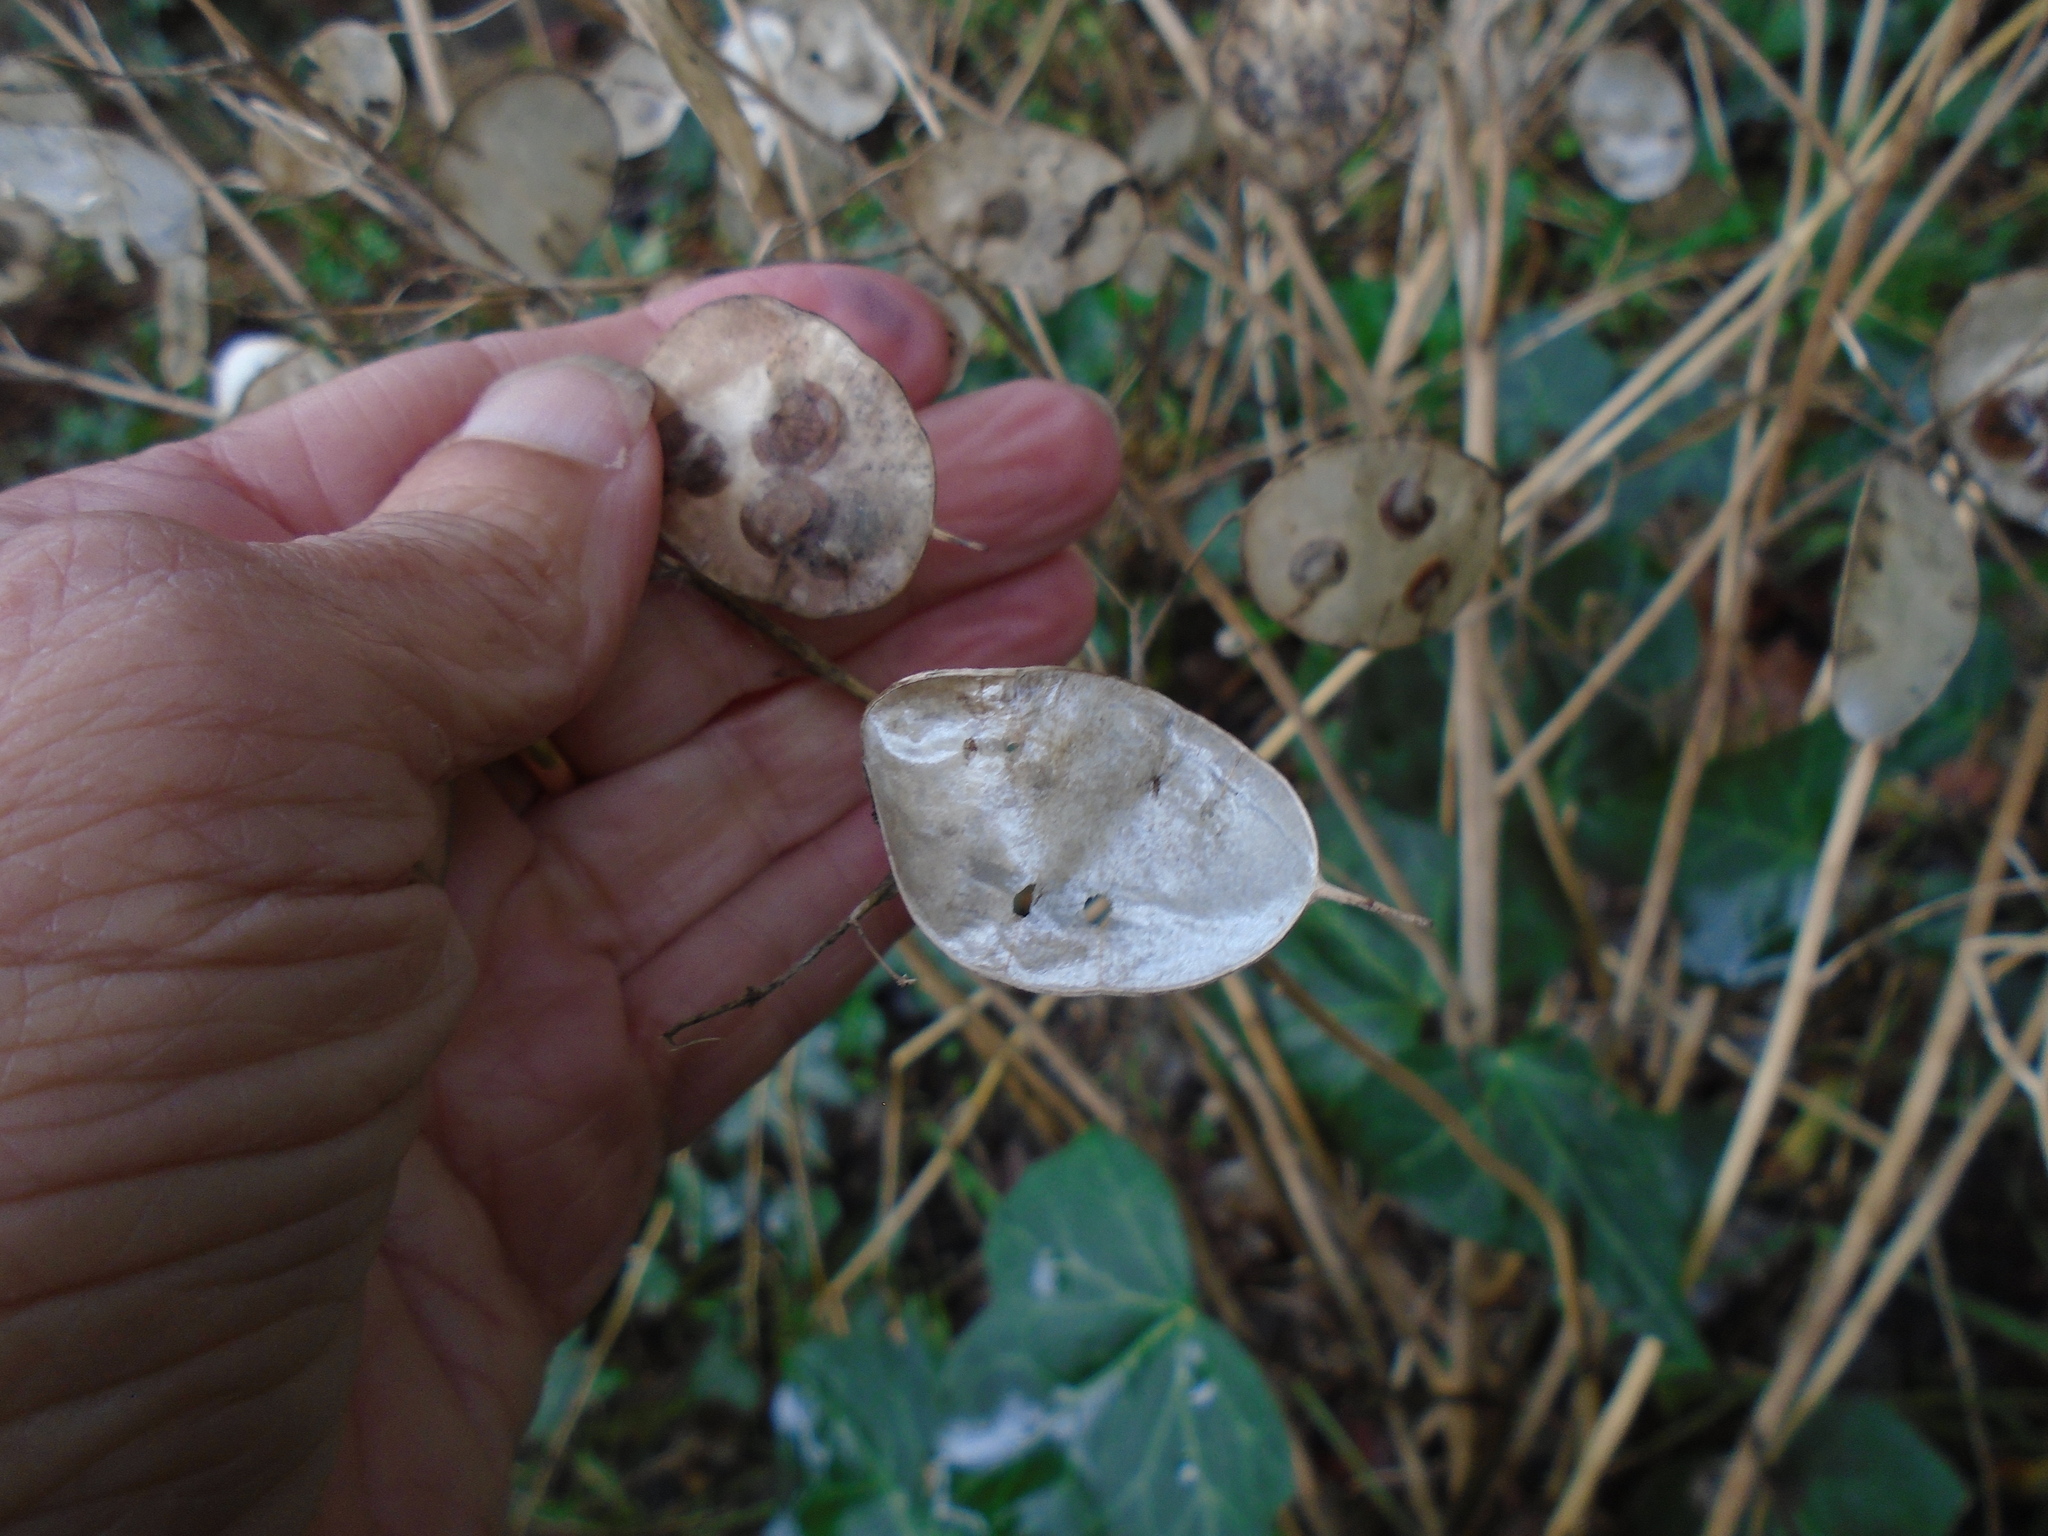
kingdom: Plantae
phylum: Tracheophyta
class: Magnoliopsida
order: Brassicales
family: Brassicaceae
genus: Lunaria
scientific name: Lunaria annua
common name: Honesty
